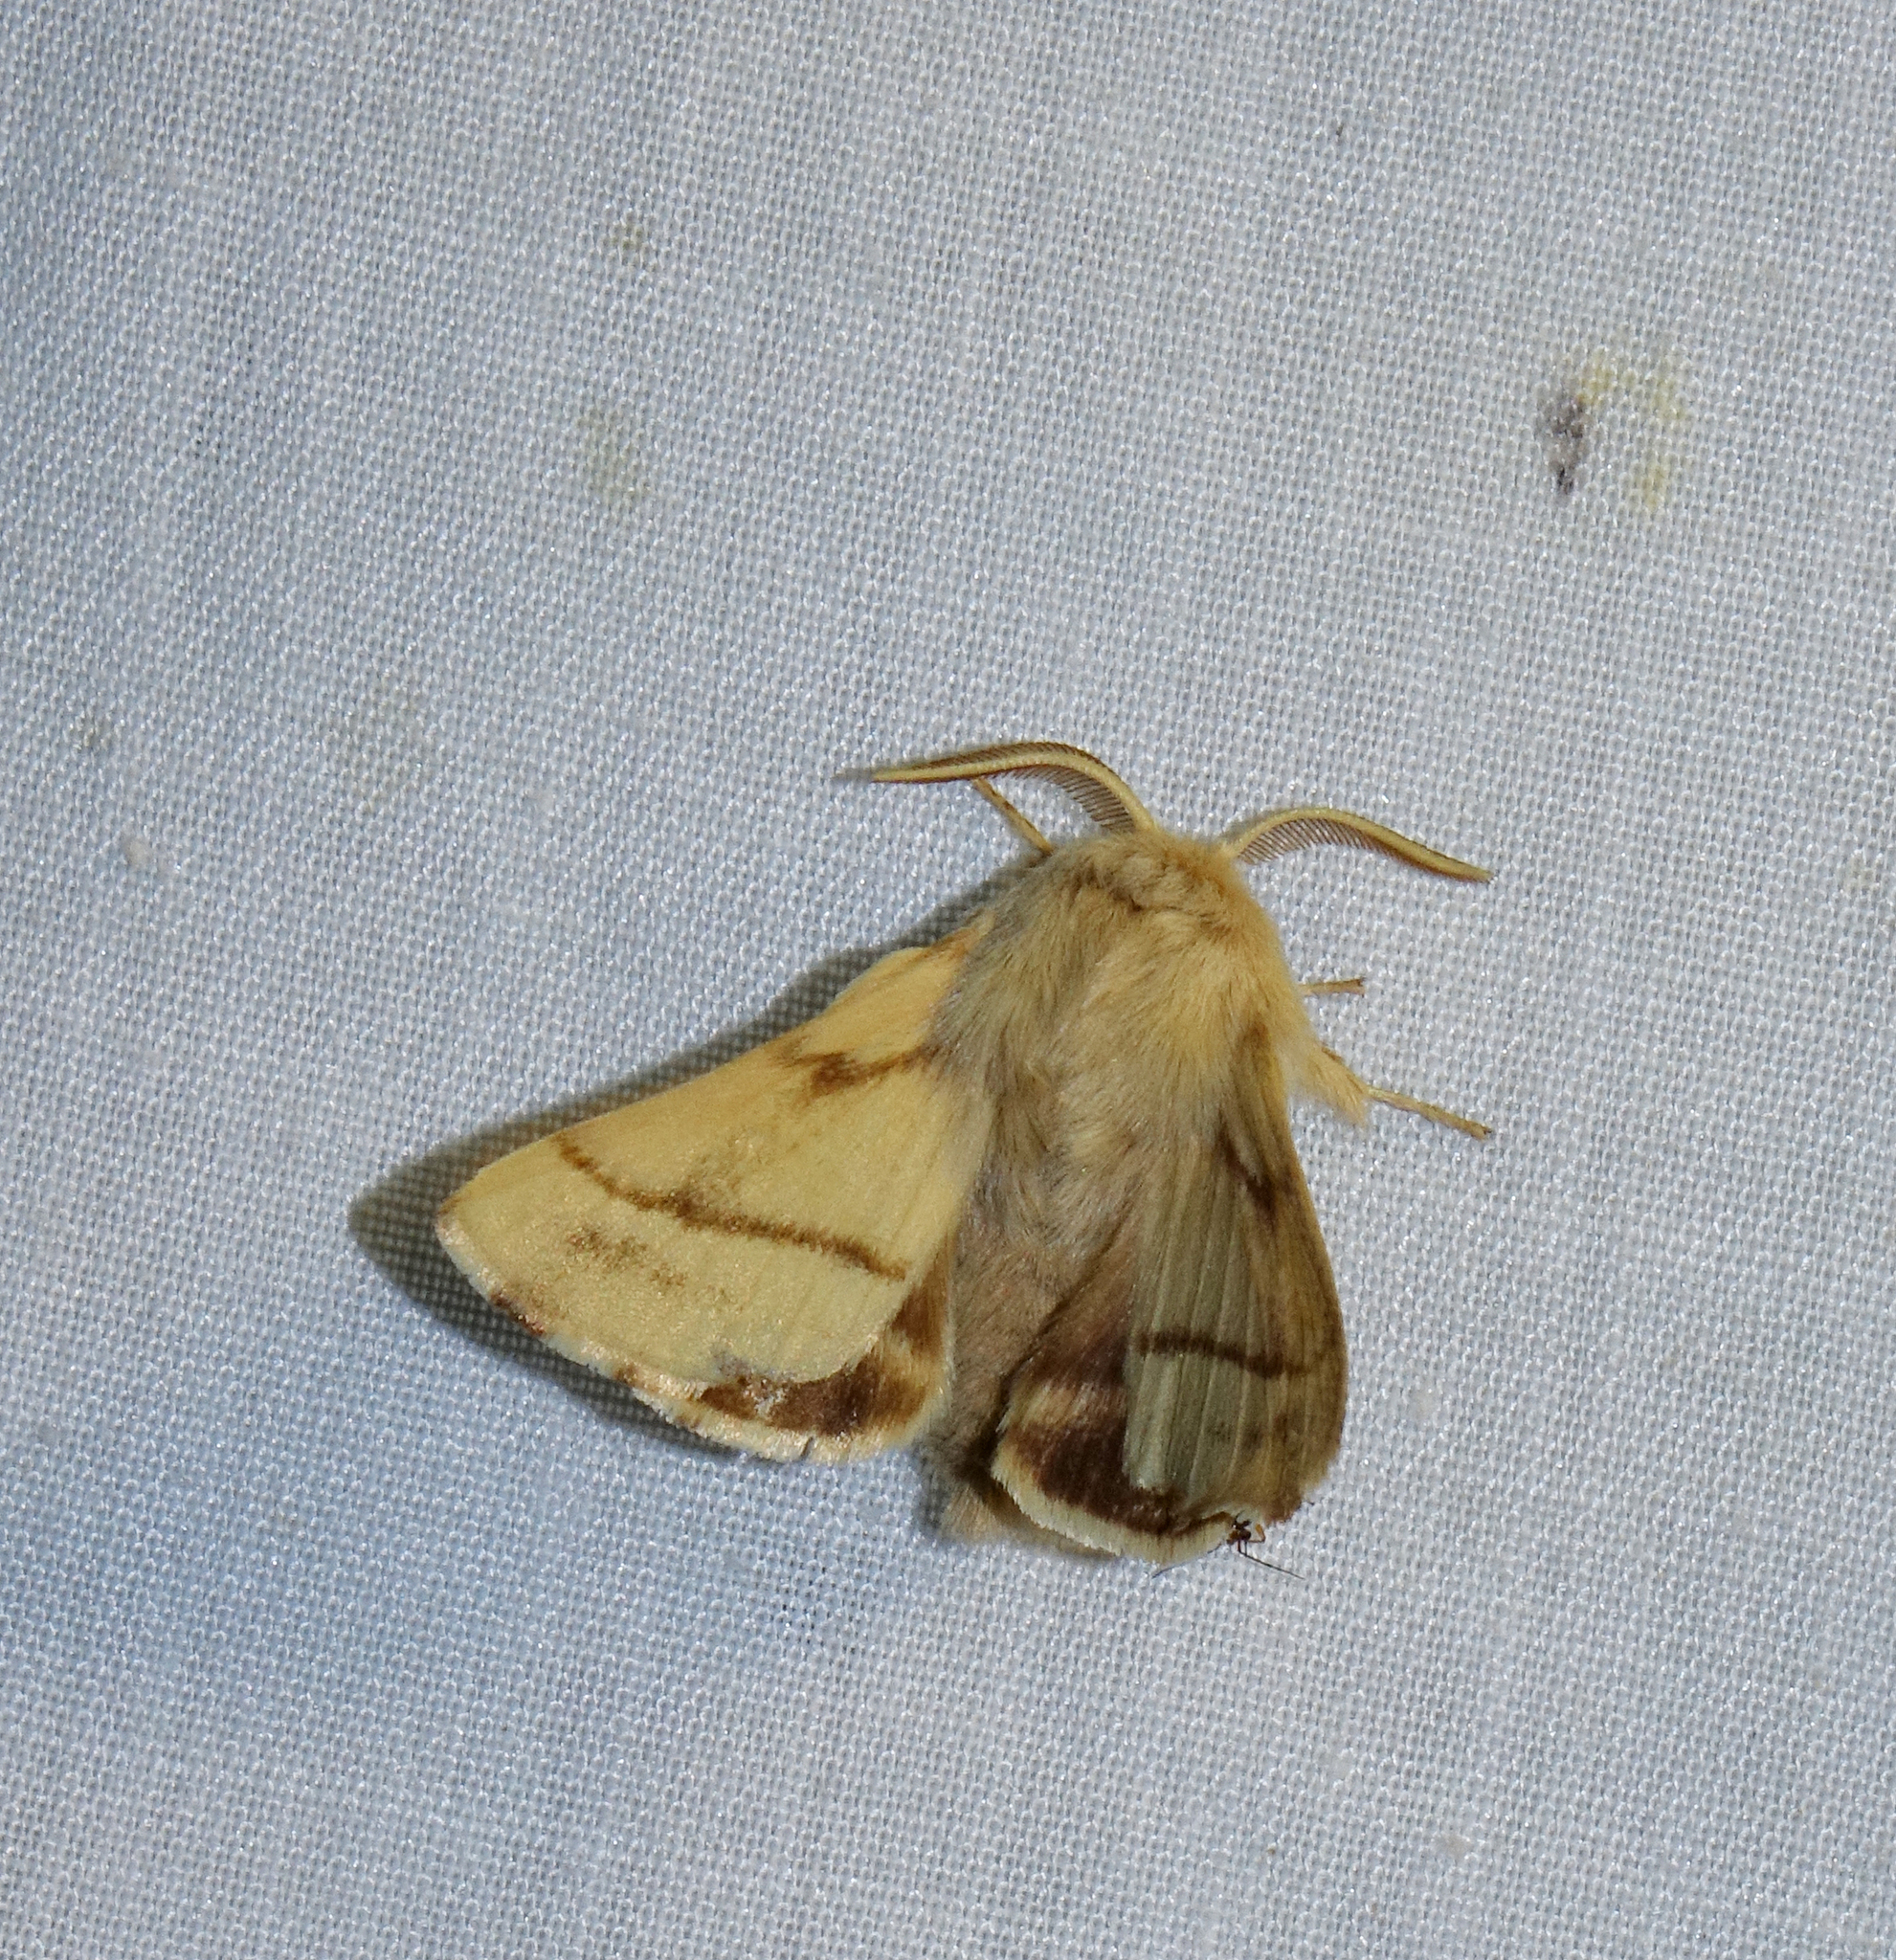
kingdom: Animalia
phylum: Arthropoda
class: Insecta
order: Lepidoptera
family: Lasiocampidae
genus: Malacosoma
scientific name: Malacosoma castrense
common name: Ground lackey
